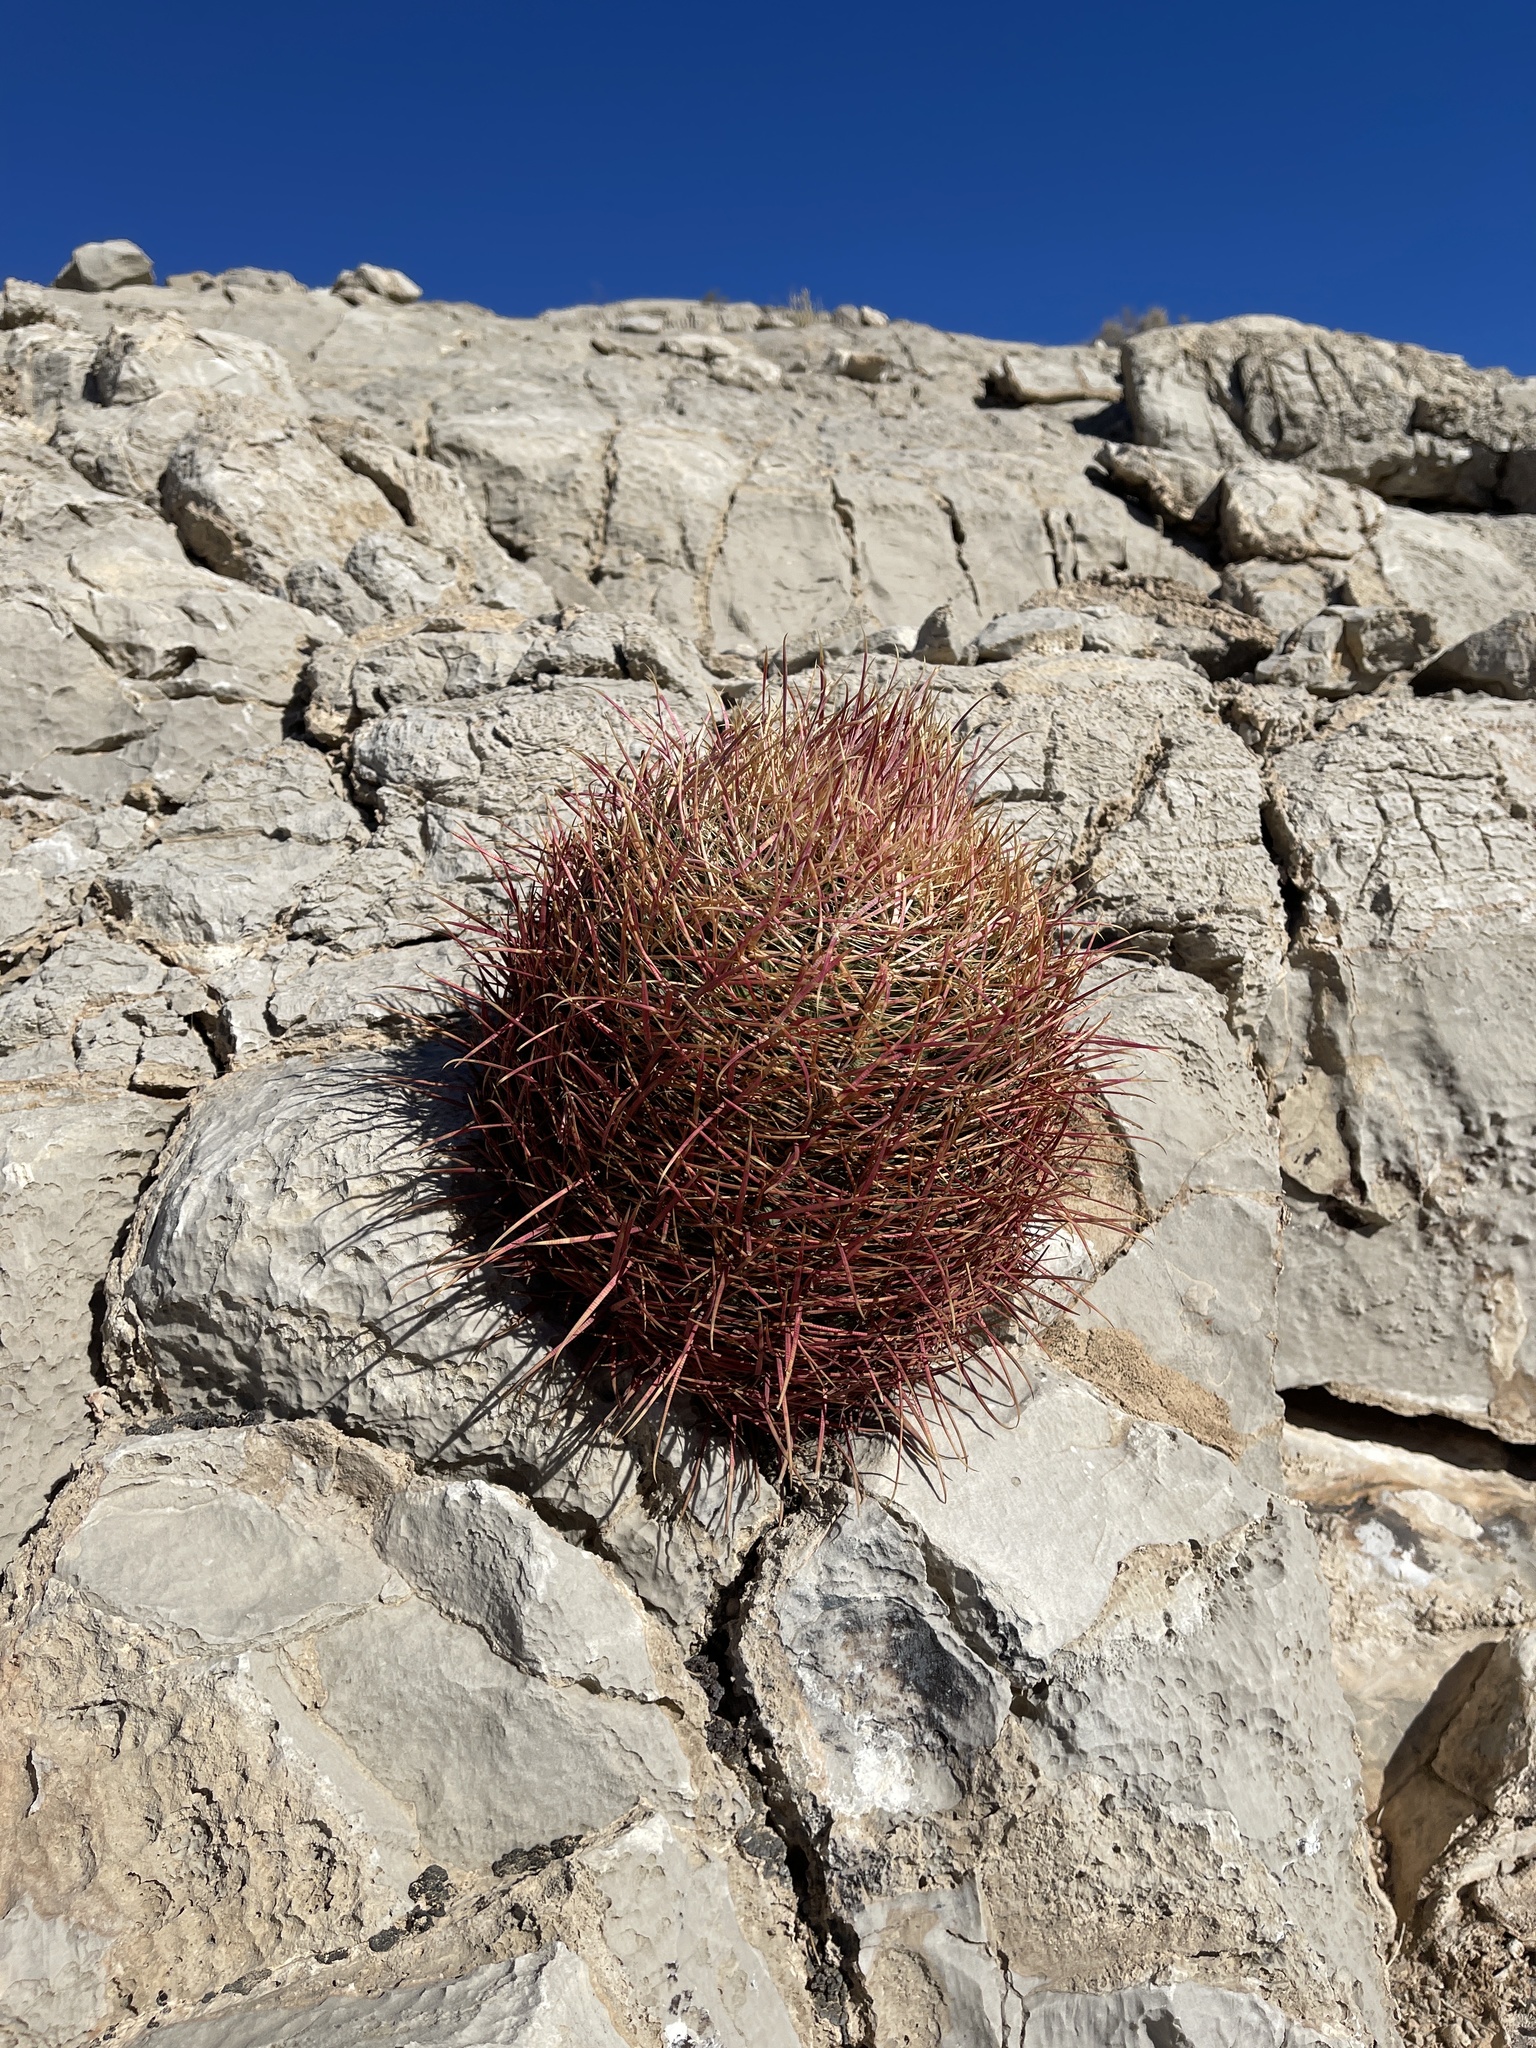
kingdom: Plantae
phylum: Tracheophyta
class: Magnoliopsida
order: Caryophyllales
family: Cactaceae
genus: Ferocactus
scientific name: Ferocactus cylindraceus
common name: California barrel cactus
